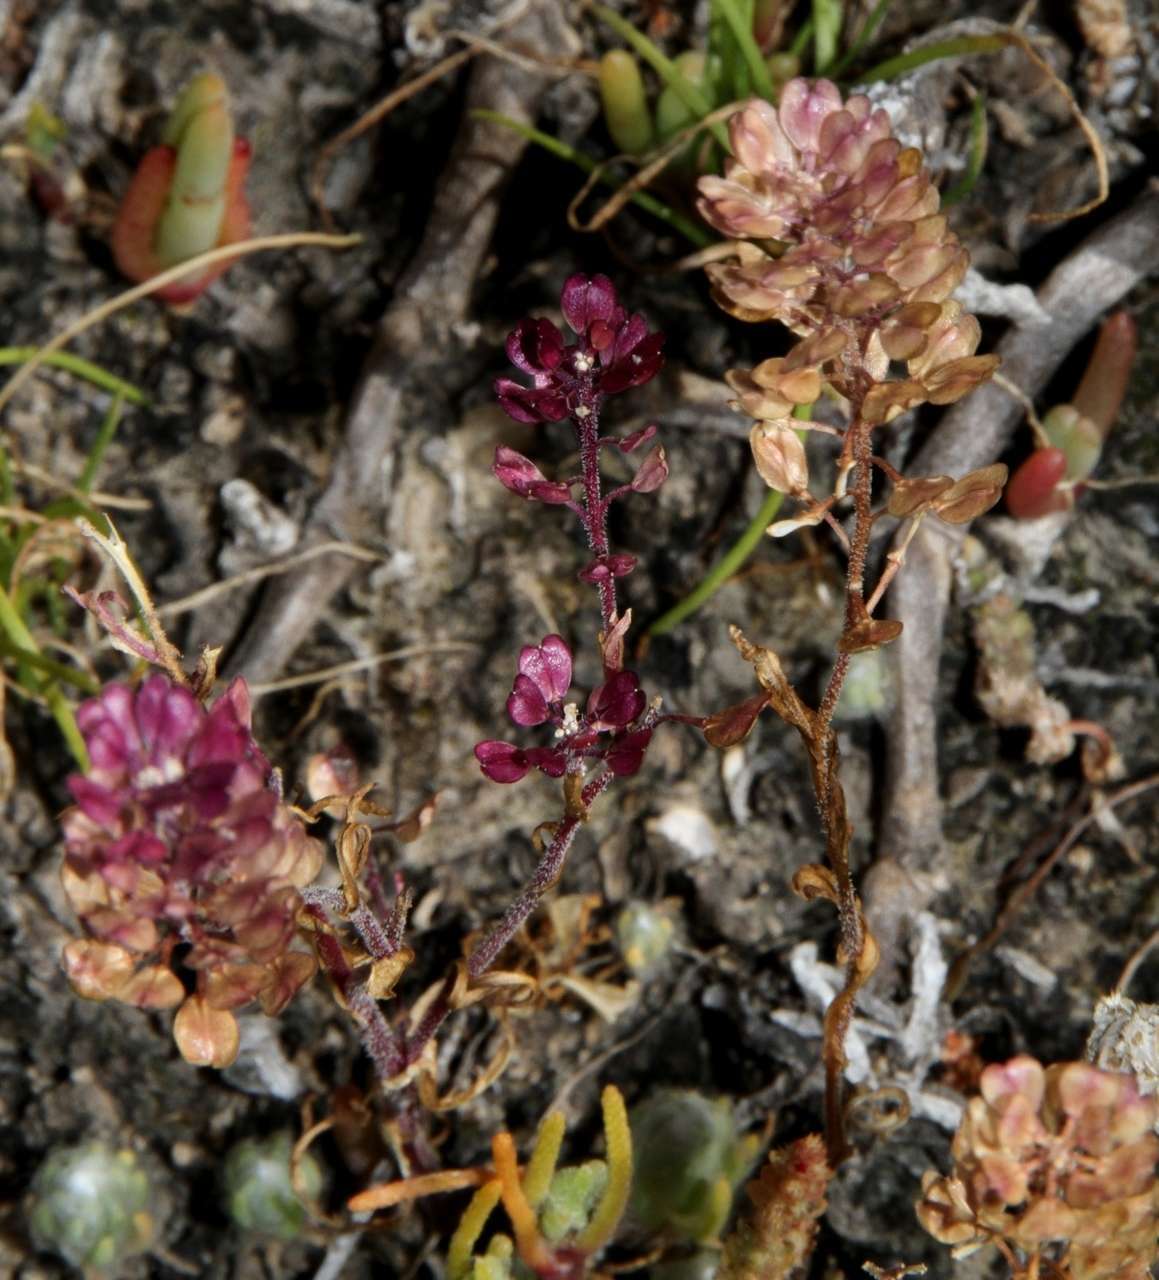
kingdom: Plantae
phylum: Tracheophyta
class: Magnoliopsida
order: Brassicales
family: Brassicaceae
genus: Lepidium
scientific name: Lepidium papillosum
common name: Warty pepperwort
